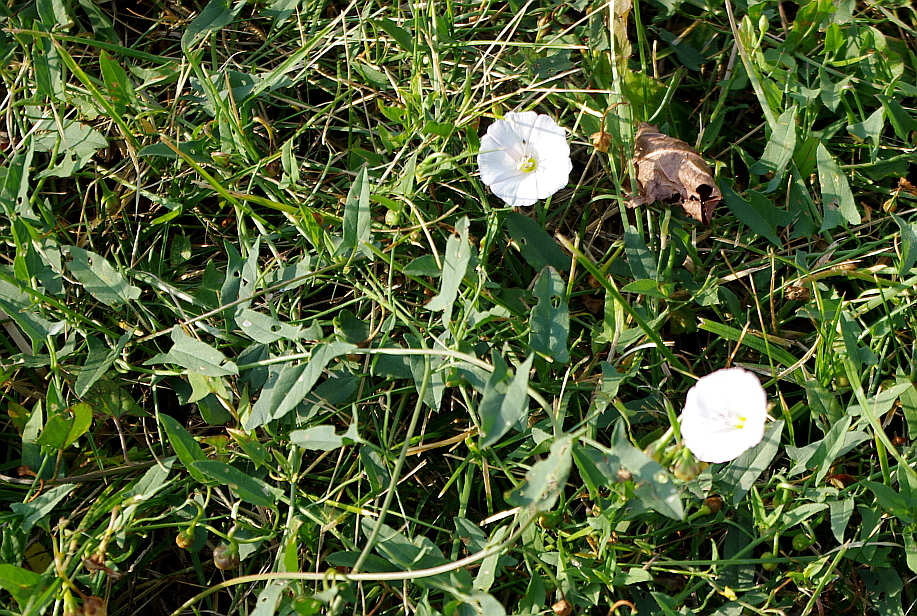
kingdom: Plantae
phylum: Tracheophyta
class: Magnoliopsida
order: Solanales
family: Convolvulaceae
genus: Convolvulus
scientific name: Convolvulus arvensis
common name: Field bindweed
